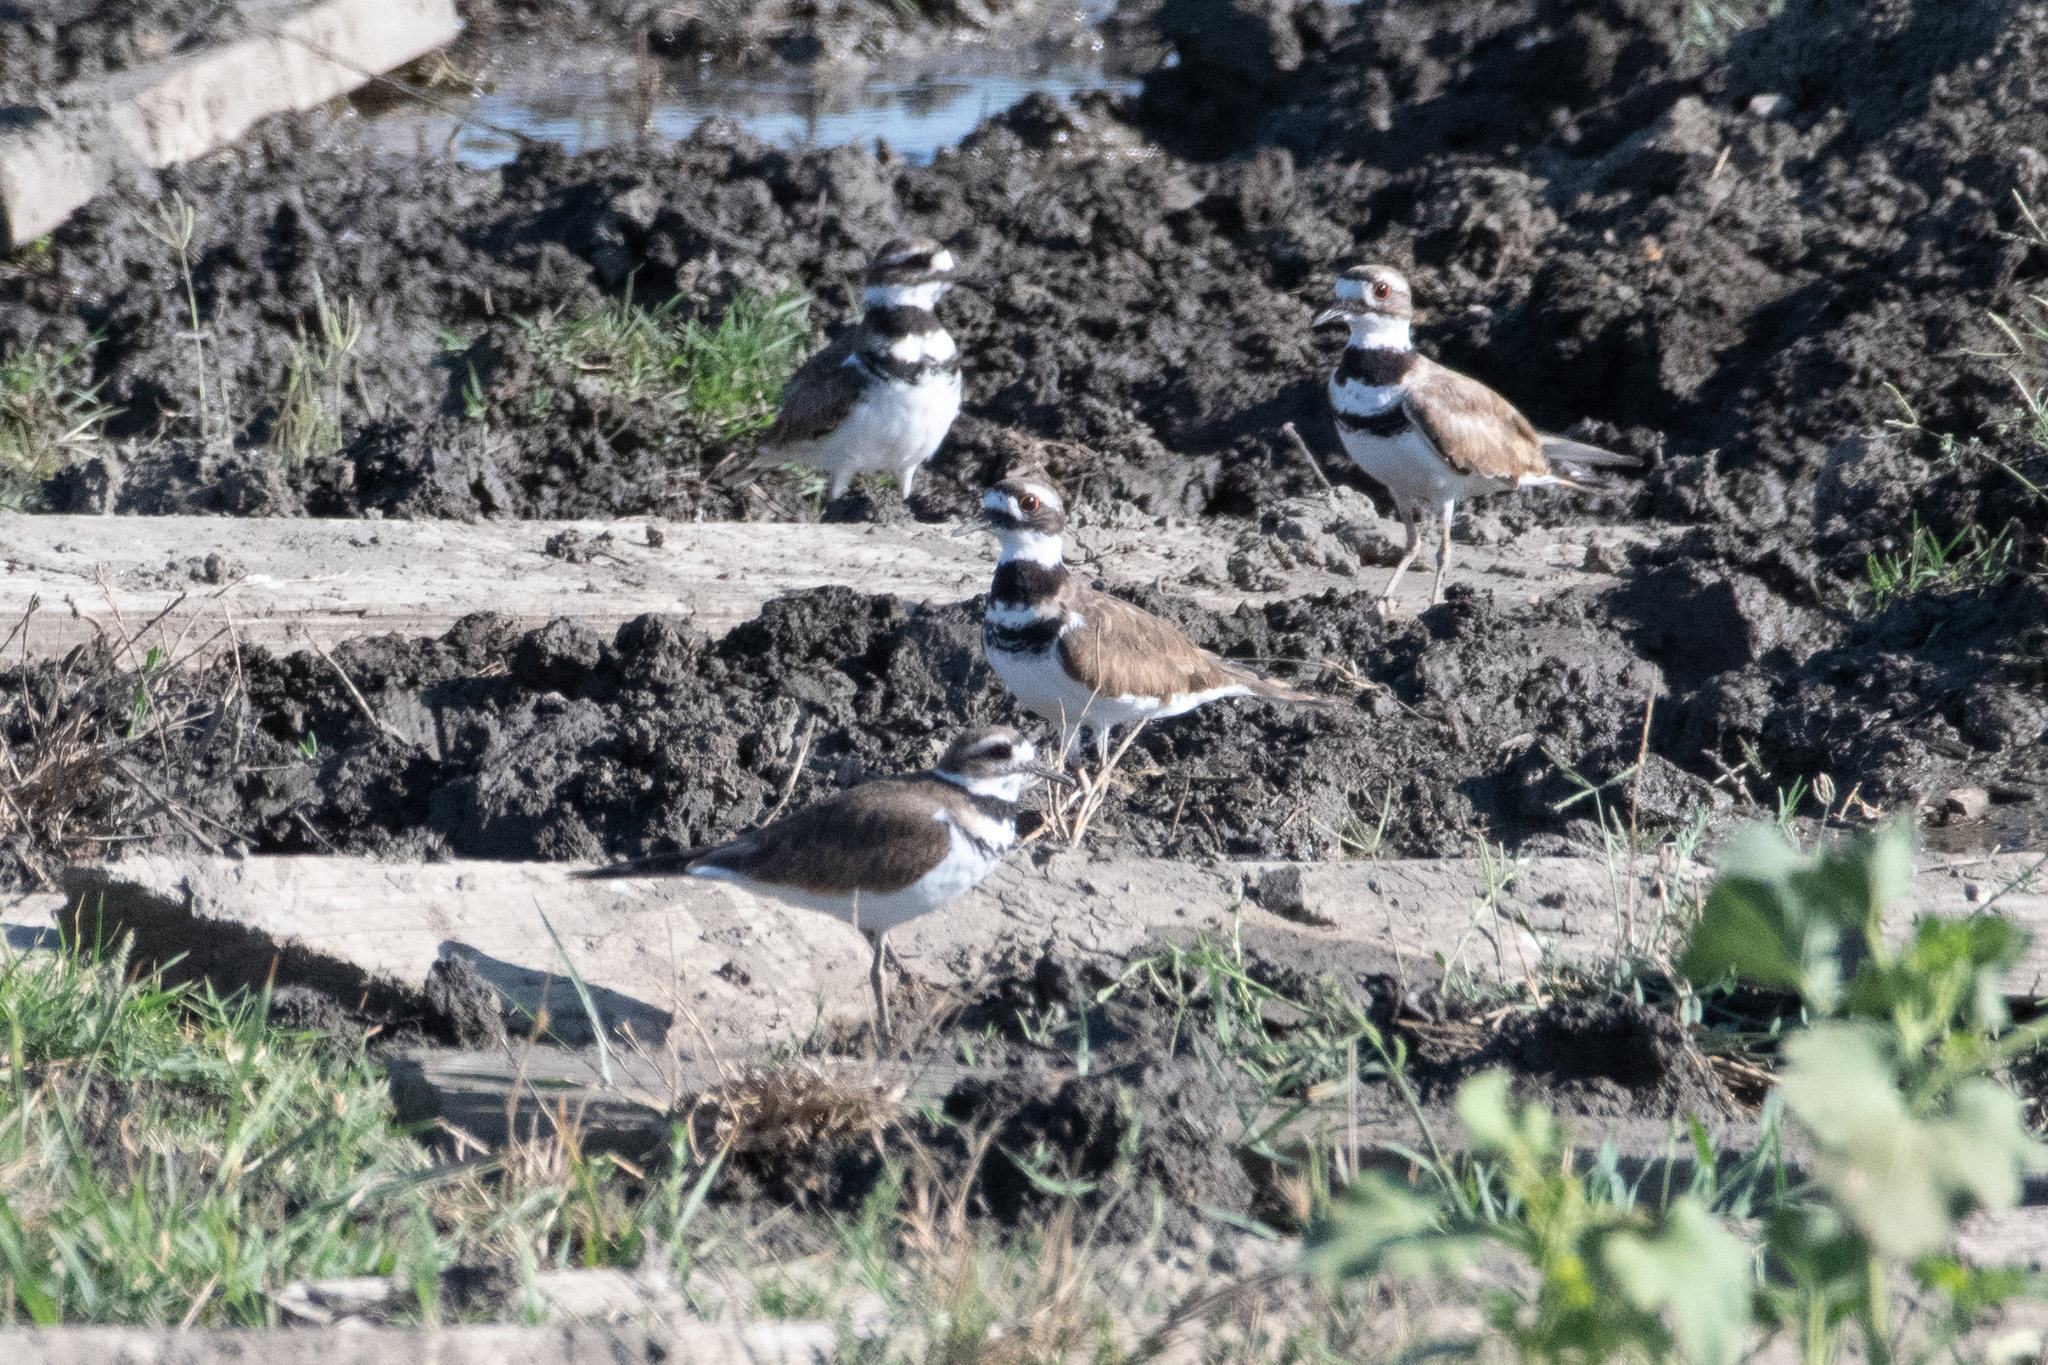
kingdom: Animalia
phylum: Chordata
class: Aves
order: Charadriiformes
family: Charadriidae
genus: Charadrius
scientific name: Charadrius vociferus
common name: Killdeer
